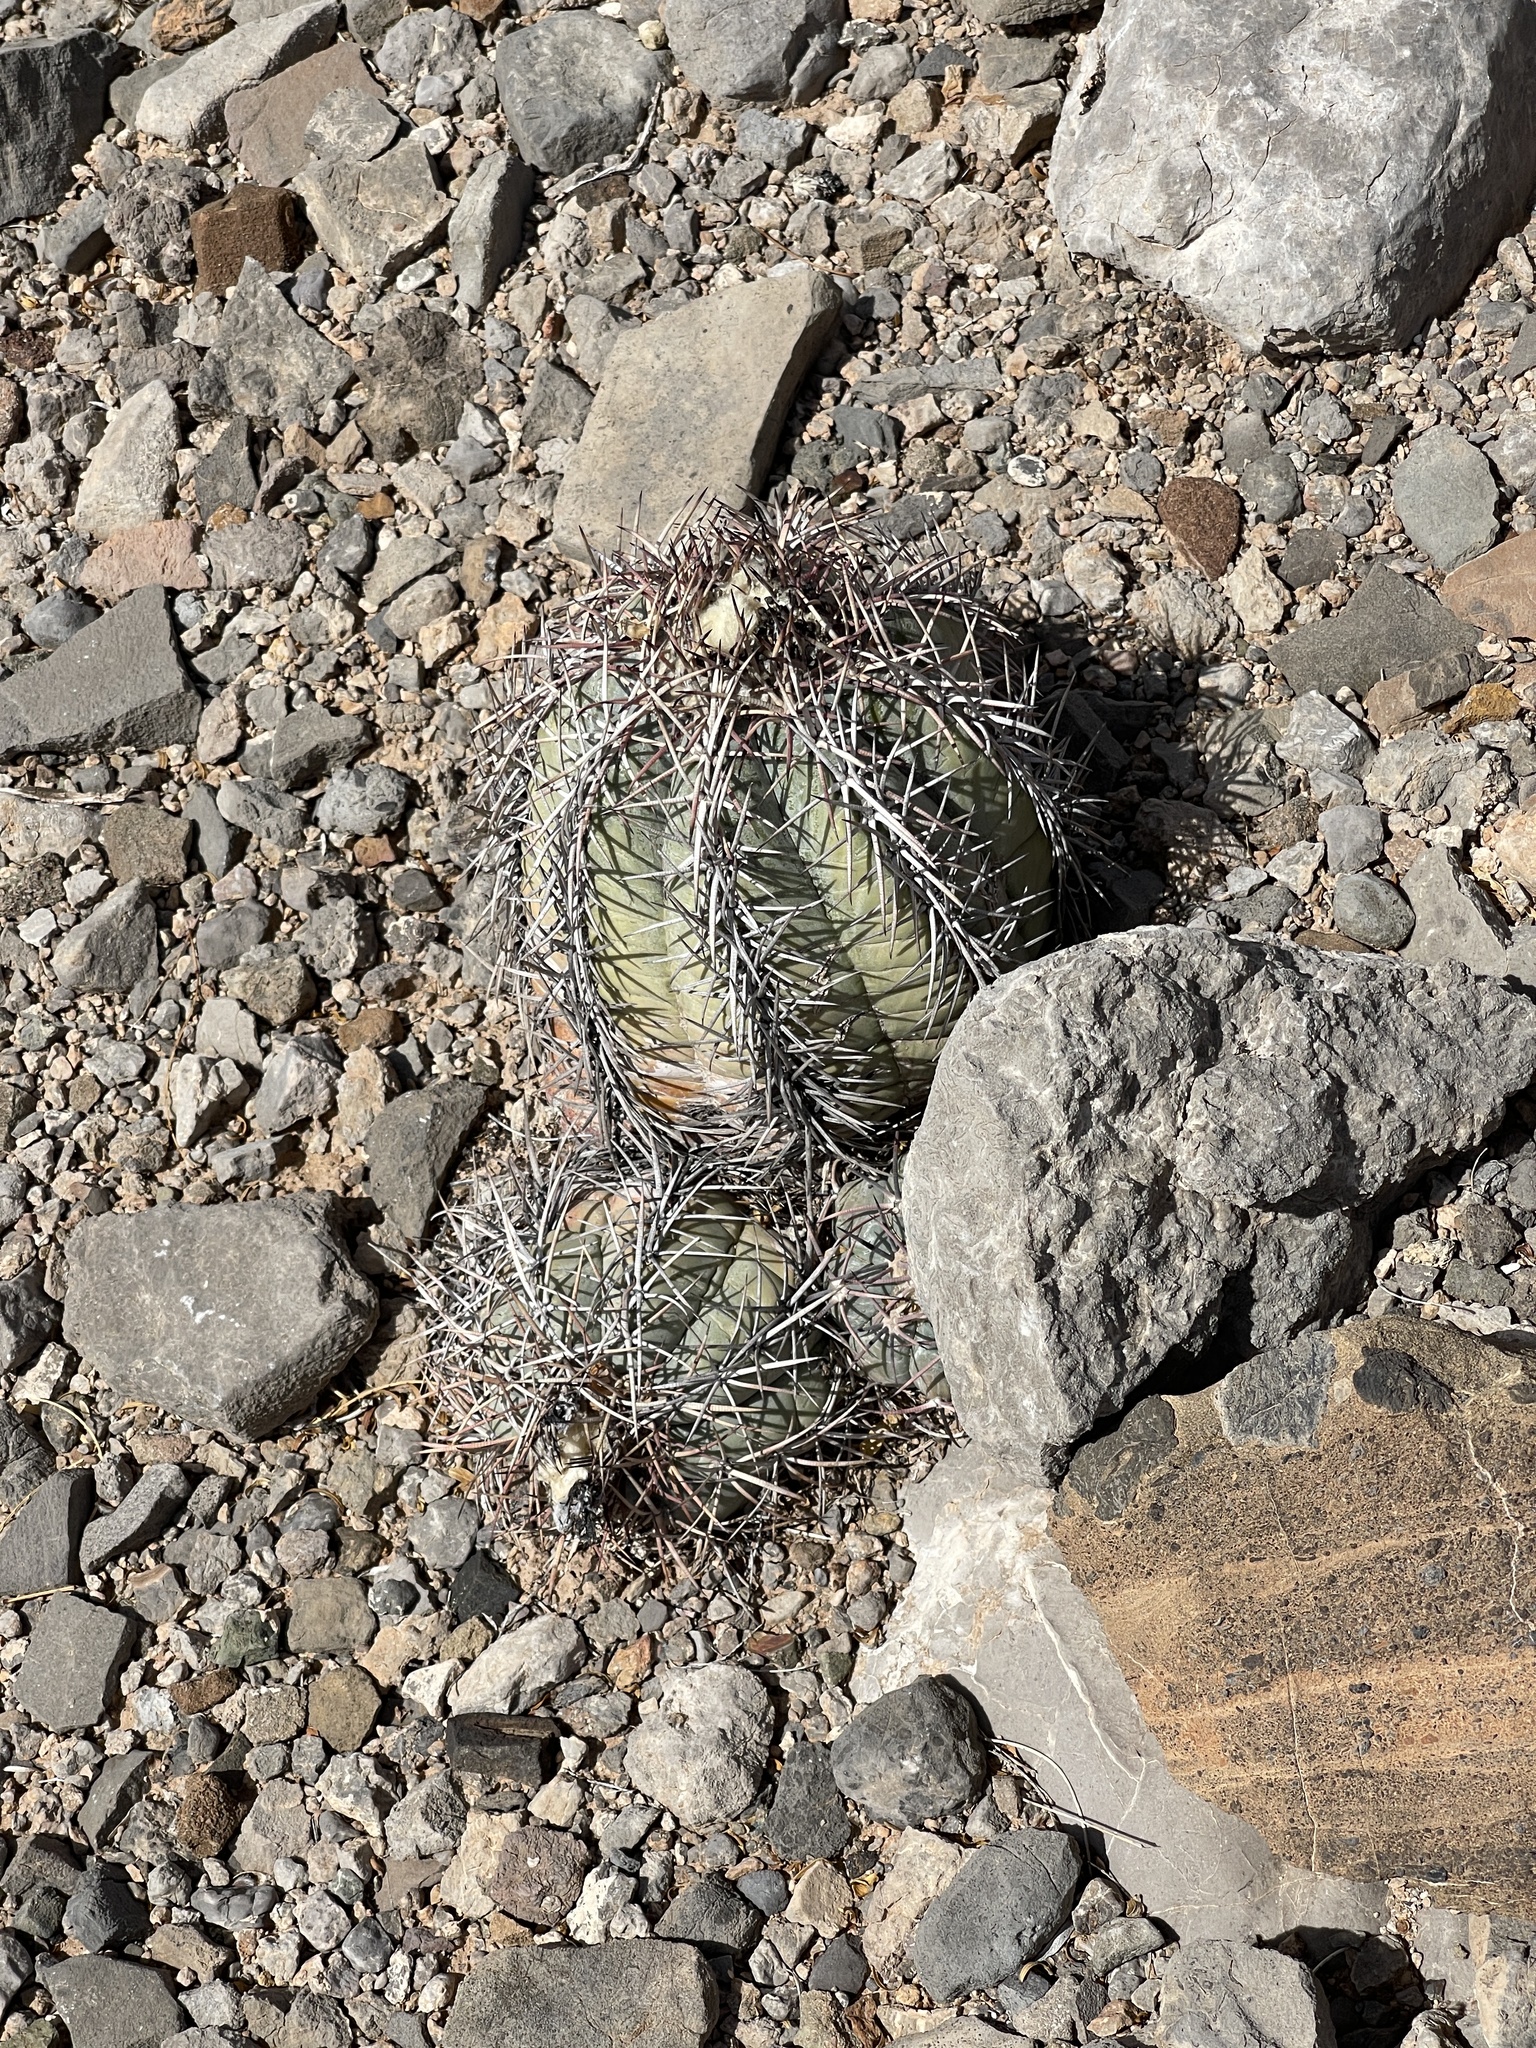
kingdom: Plantae
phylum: Tracheophyta
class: Magnoliopsida
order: Caryophyllales
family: Cactaceae
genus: Echinocactus
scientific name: Echinocactus horizonthalonius
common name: Devilshead
